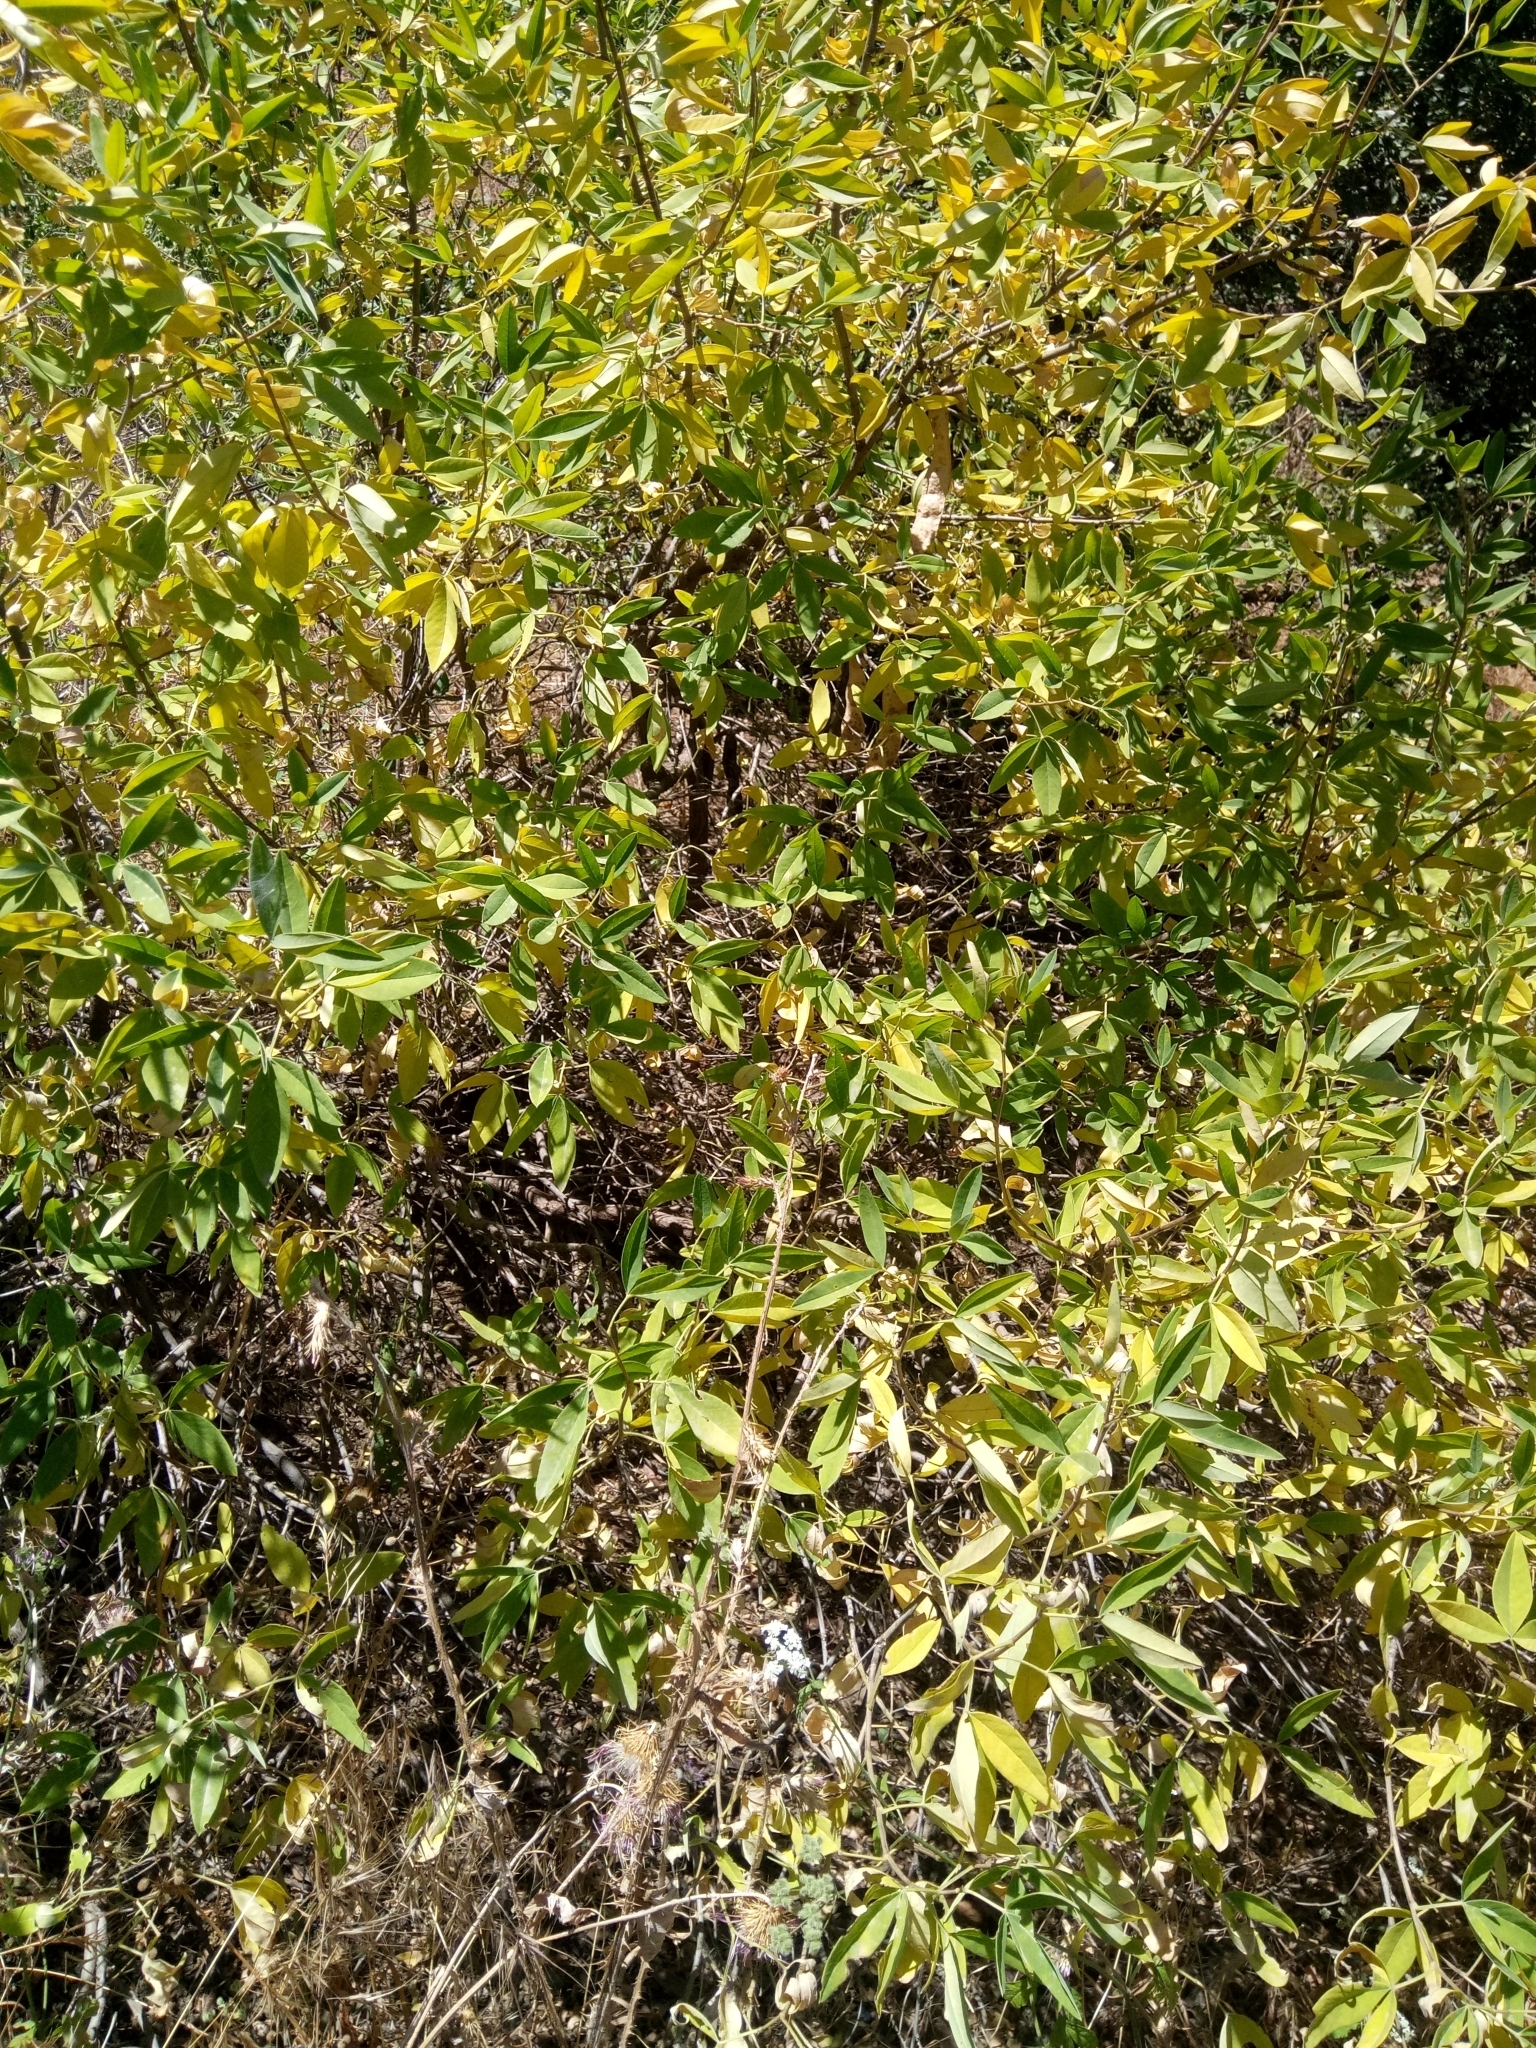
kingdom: Plantae
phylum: Tracheophyta
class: Magnoliopsida
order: Fabales
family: Fabaceae
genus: Anagyris
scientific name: Anagyris foetida
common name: Stinking bean trefoil
